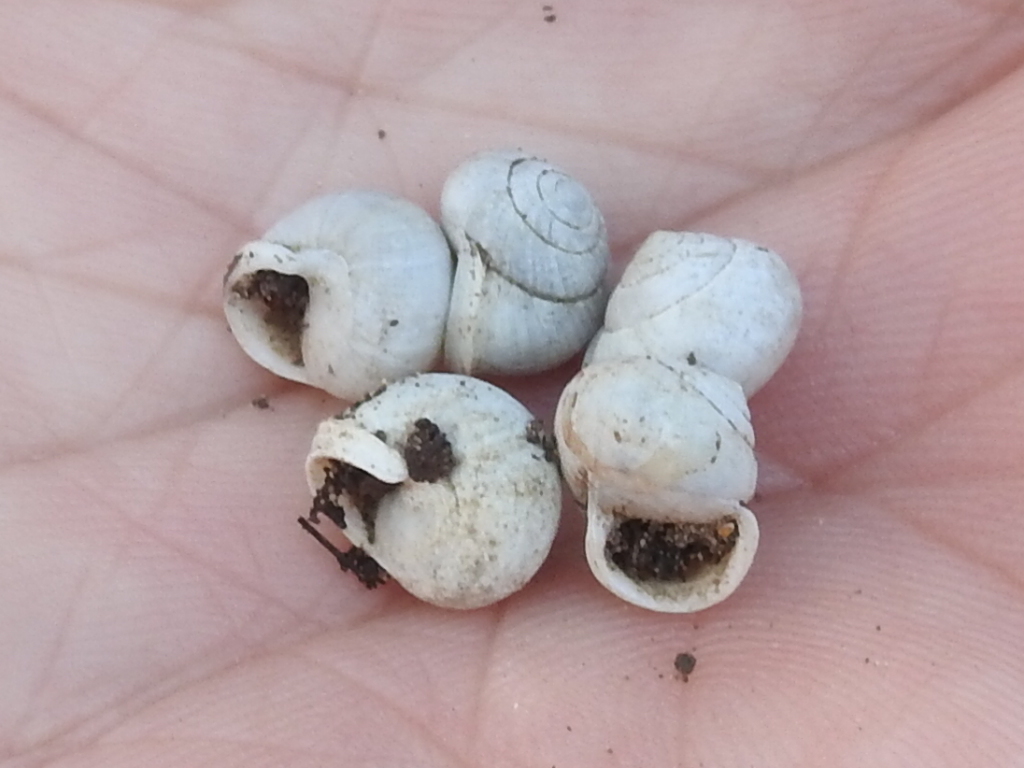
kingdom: Animalia
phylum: Mollusca
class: Gastropoda
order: Cycloneritida
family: Helicinidae
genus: Helicina
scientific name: Helicina orbiculata
